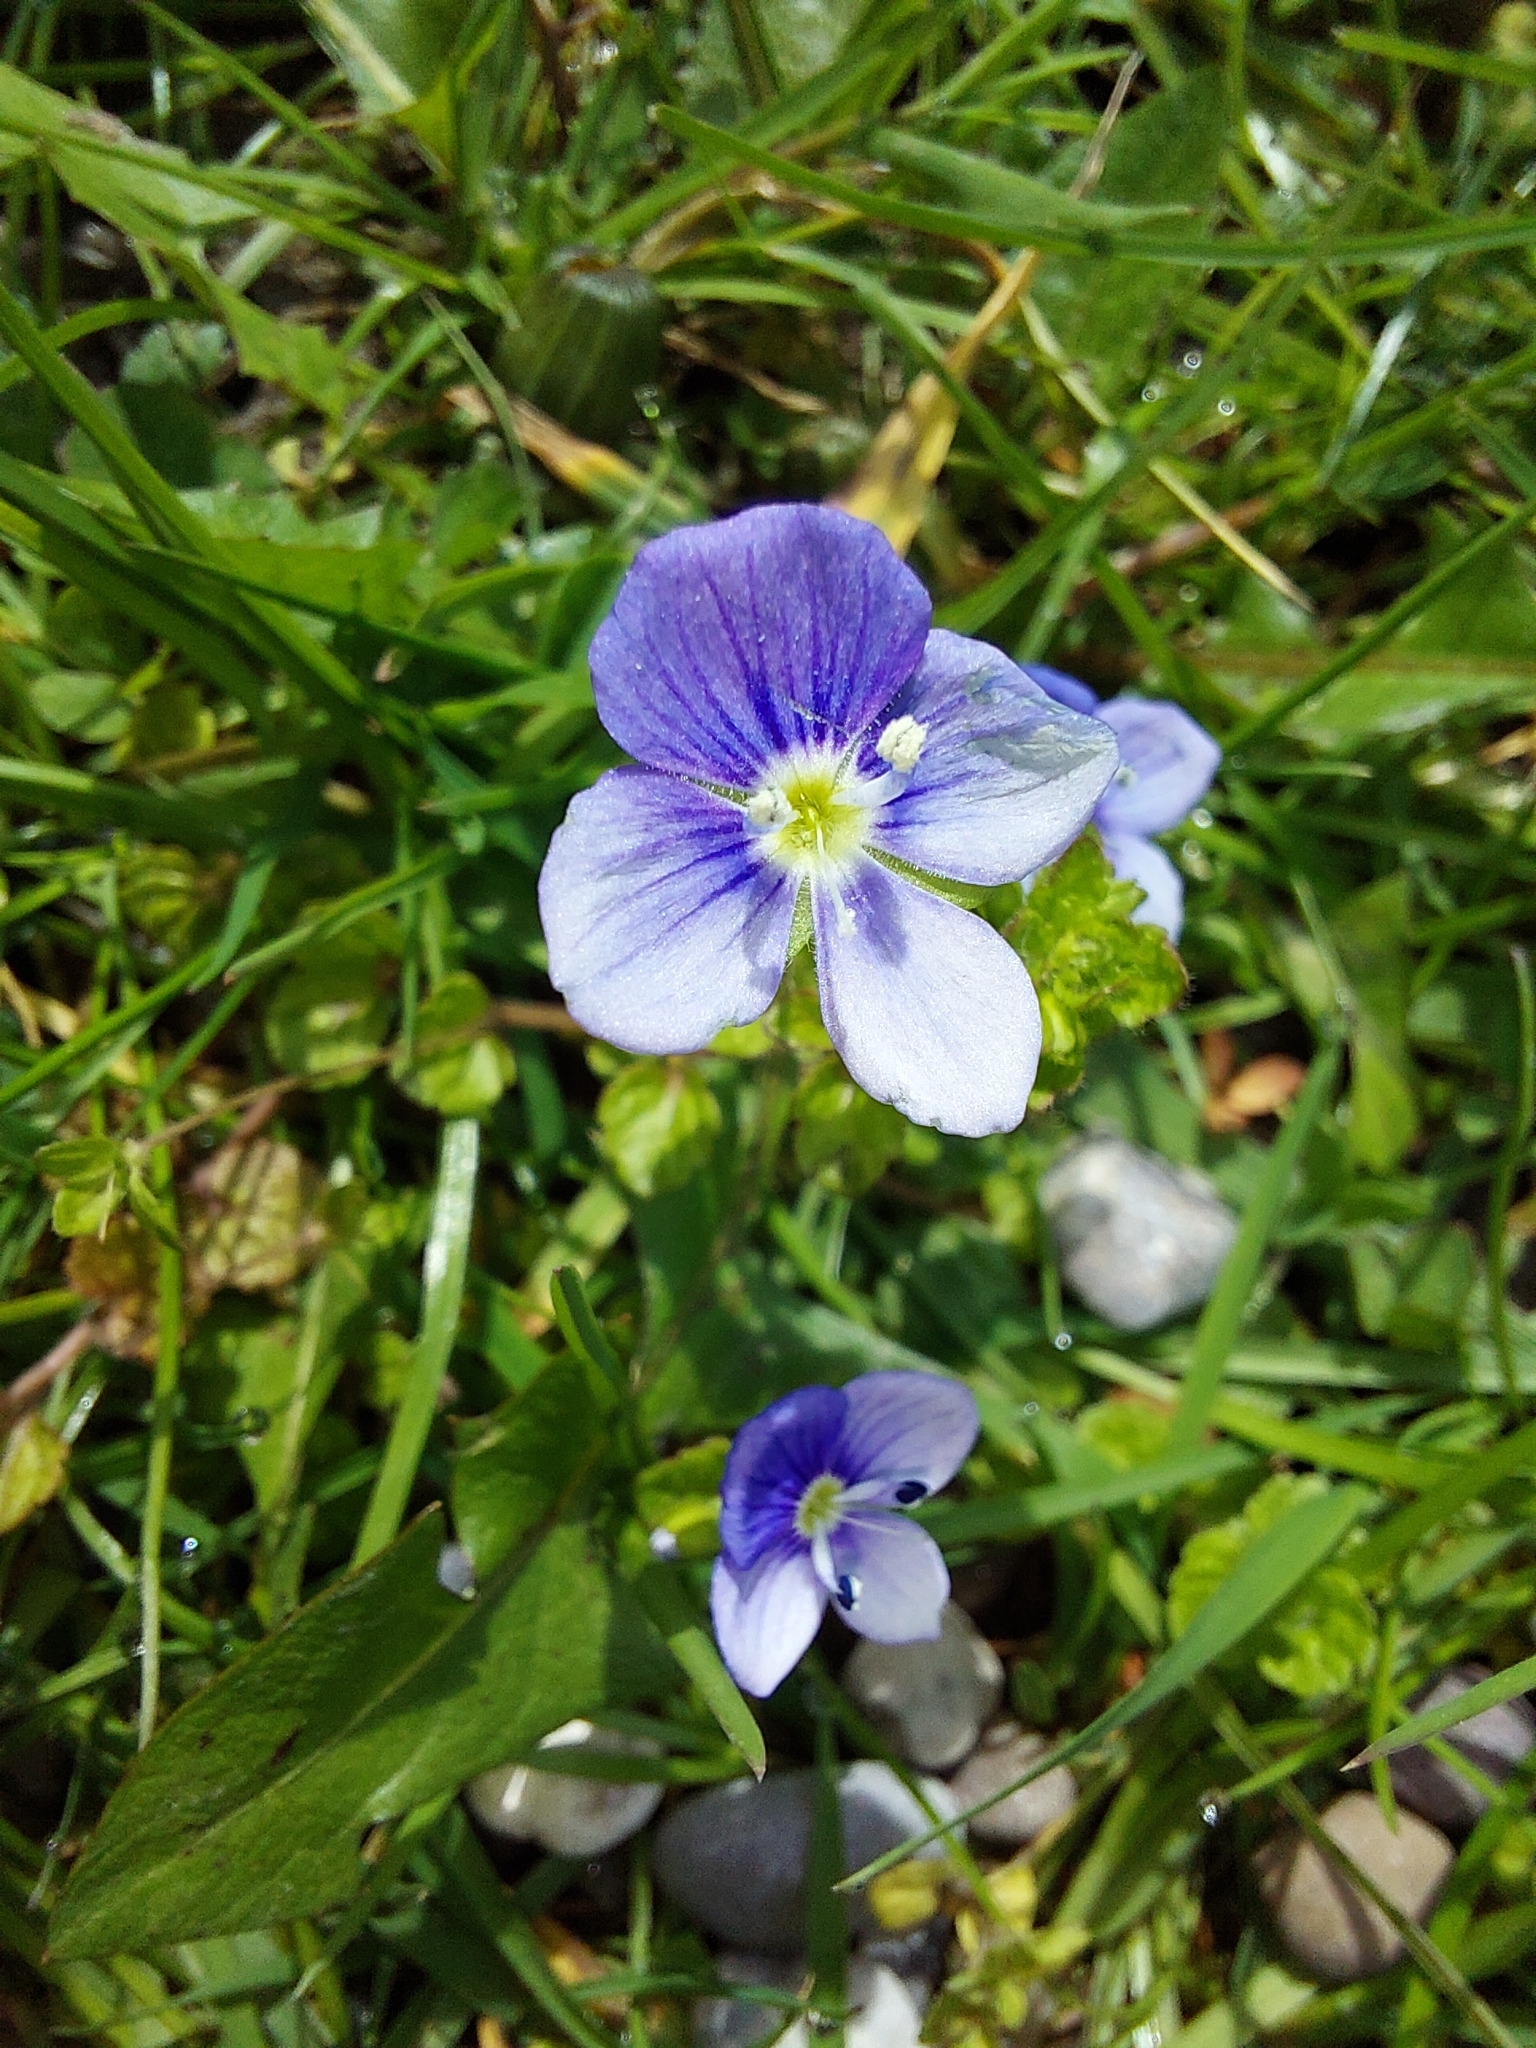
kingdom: Plantae
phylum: Tracheophyta
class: Magnoliopsida
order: Lamiales
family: Plantaginaceae
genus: Veronica
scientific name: Veronica filiformis
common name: Slender speedwell
